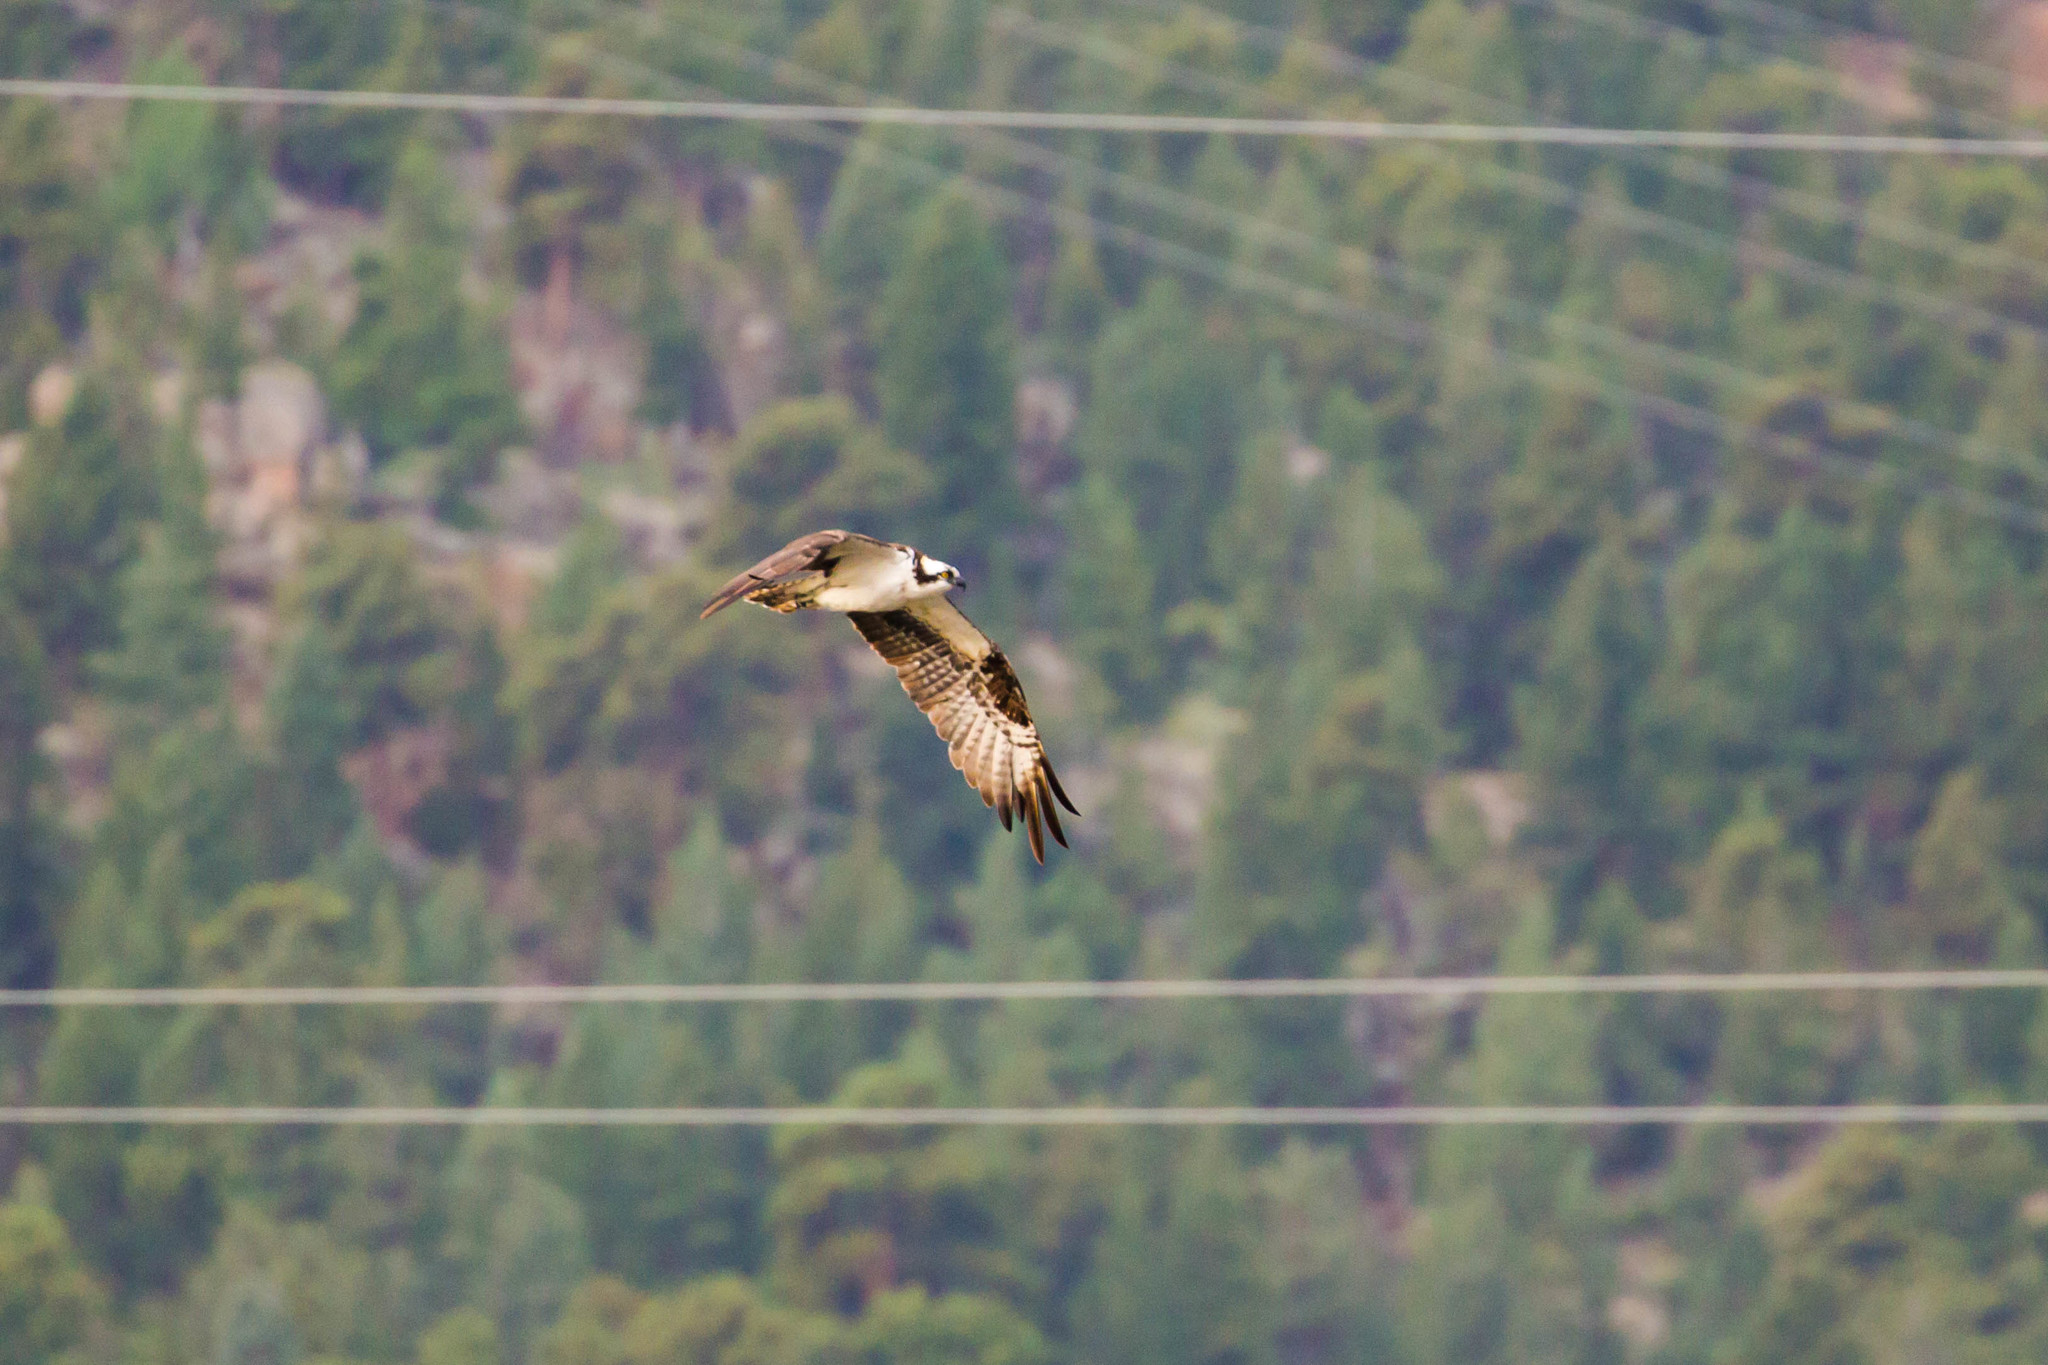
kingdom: Animalia
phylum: Chordata
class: Aves
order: Accipitriformes
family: Pandionidae
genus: Pandion
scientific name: Pandion haliaetus
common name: Osprey
